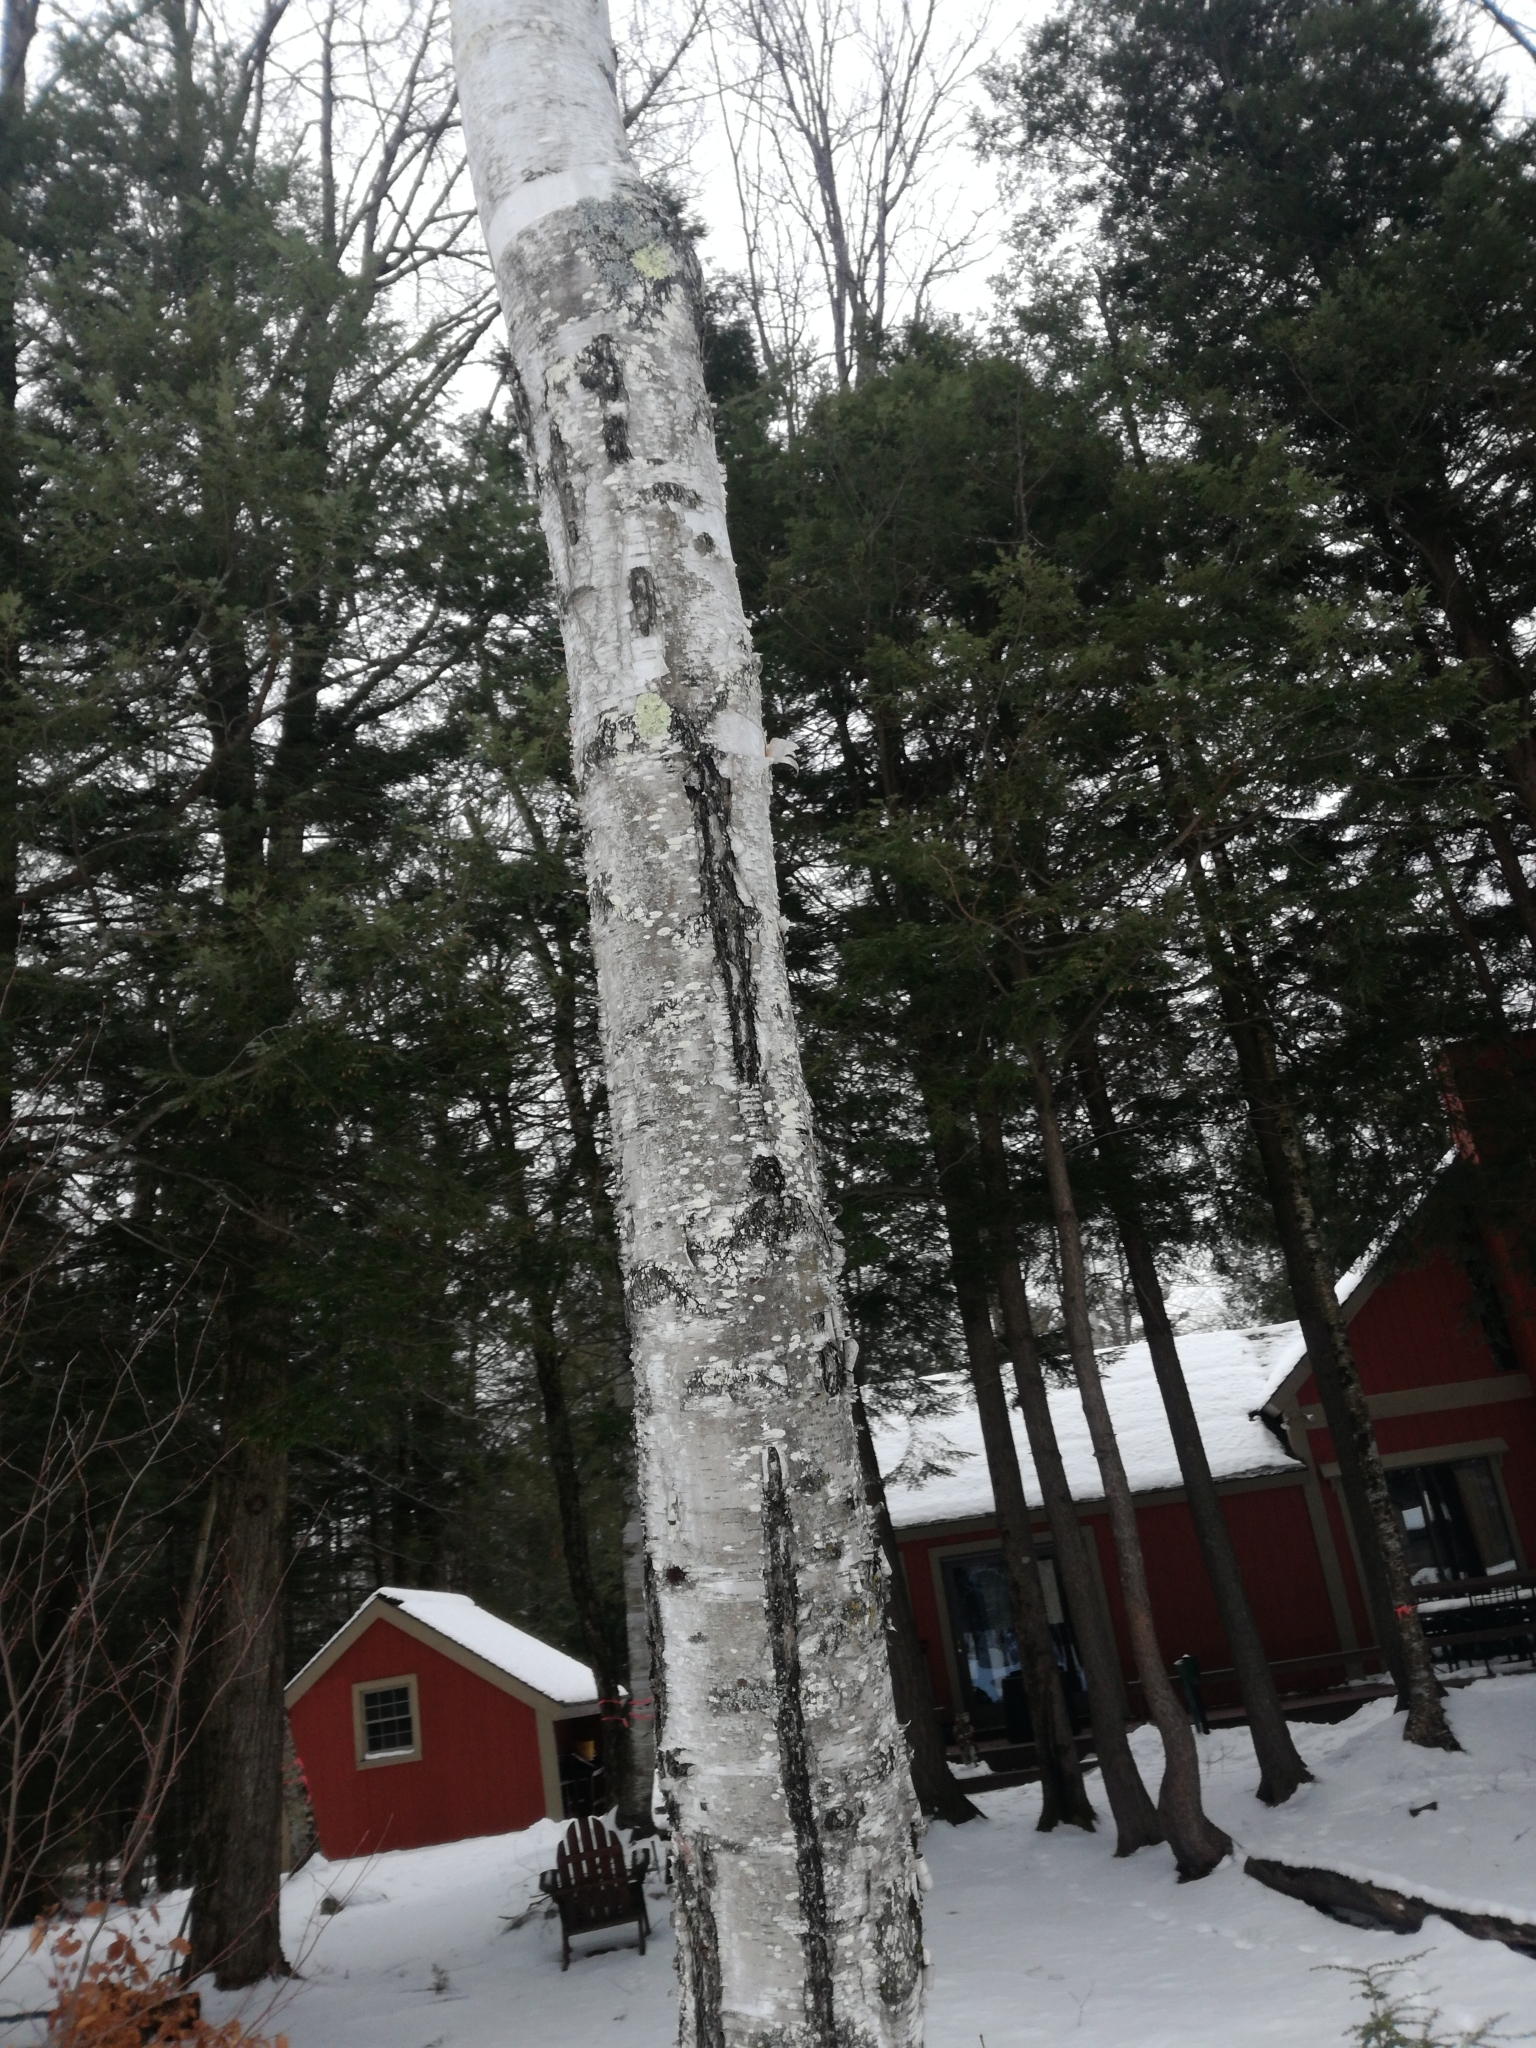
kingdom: Plantae
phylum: Tracheophyta
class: Magnoliopsida
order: Fagales
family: Betulaceae
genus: Betula
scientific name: Betula papyrifera
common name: Paper birch
